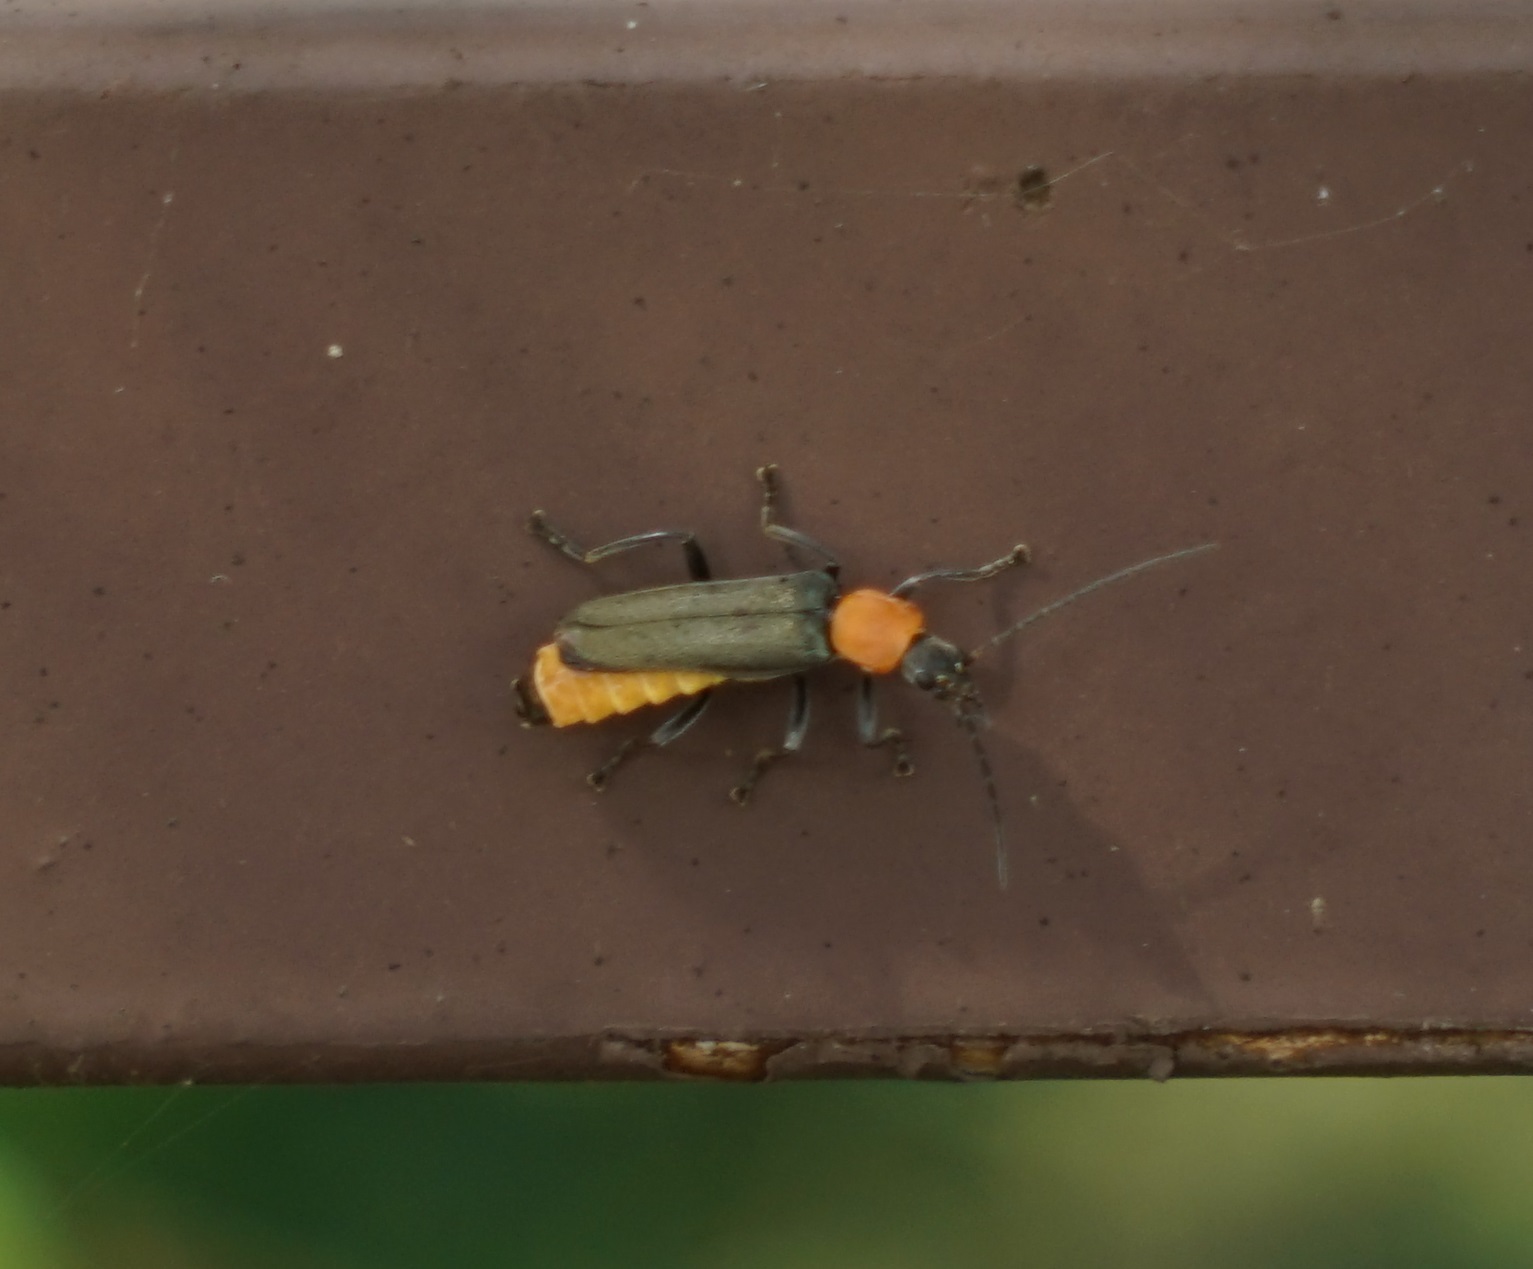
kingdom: Animalia
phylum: Arthropoda
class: Insecta
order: Coleoptera
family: Cantharidae
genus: Chauliognathus
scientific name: Chauliognathus
